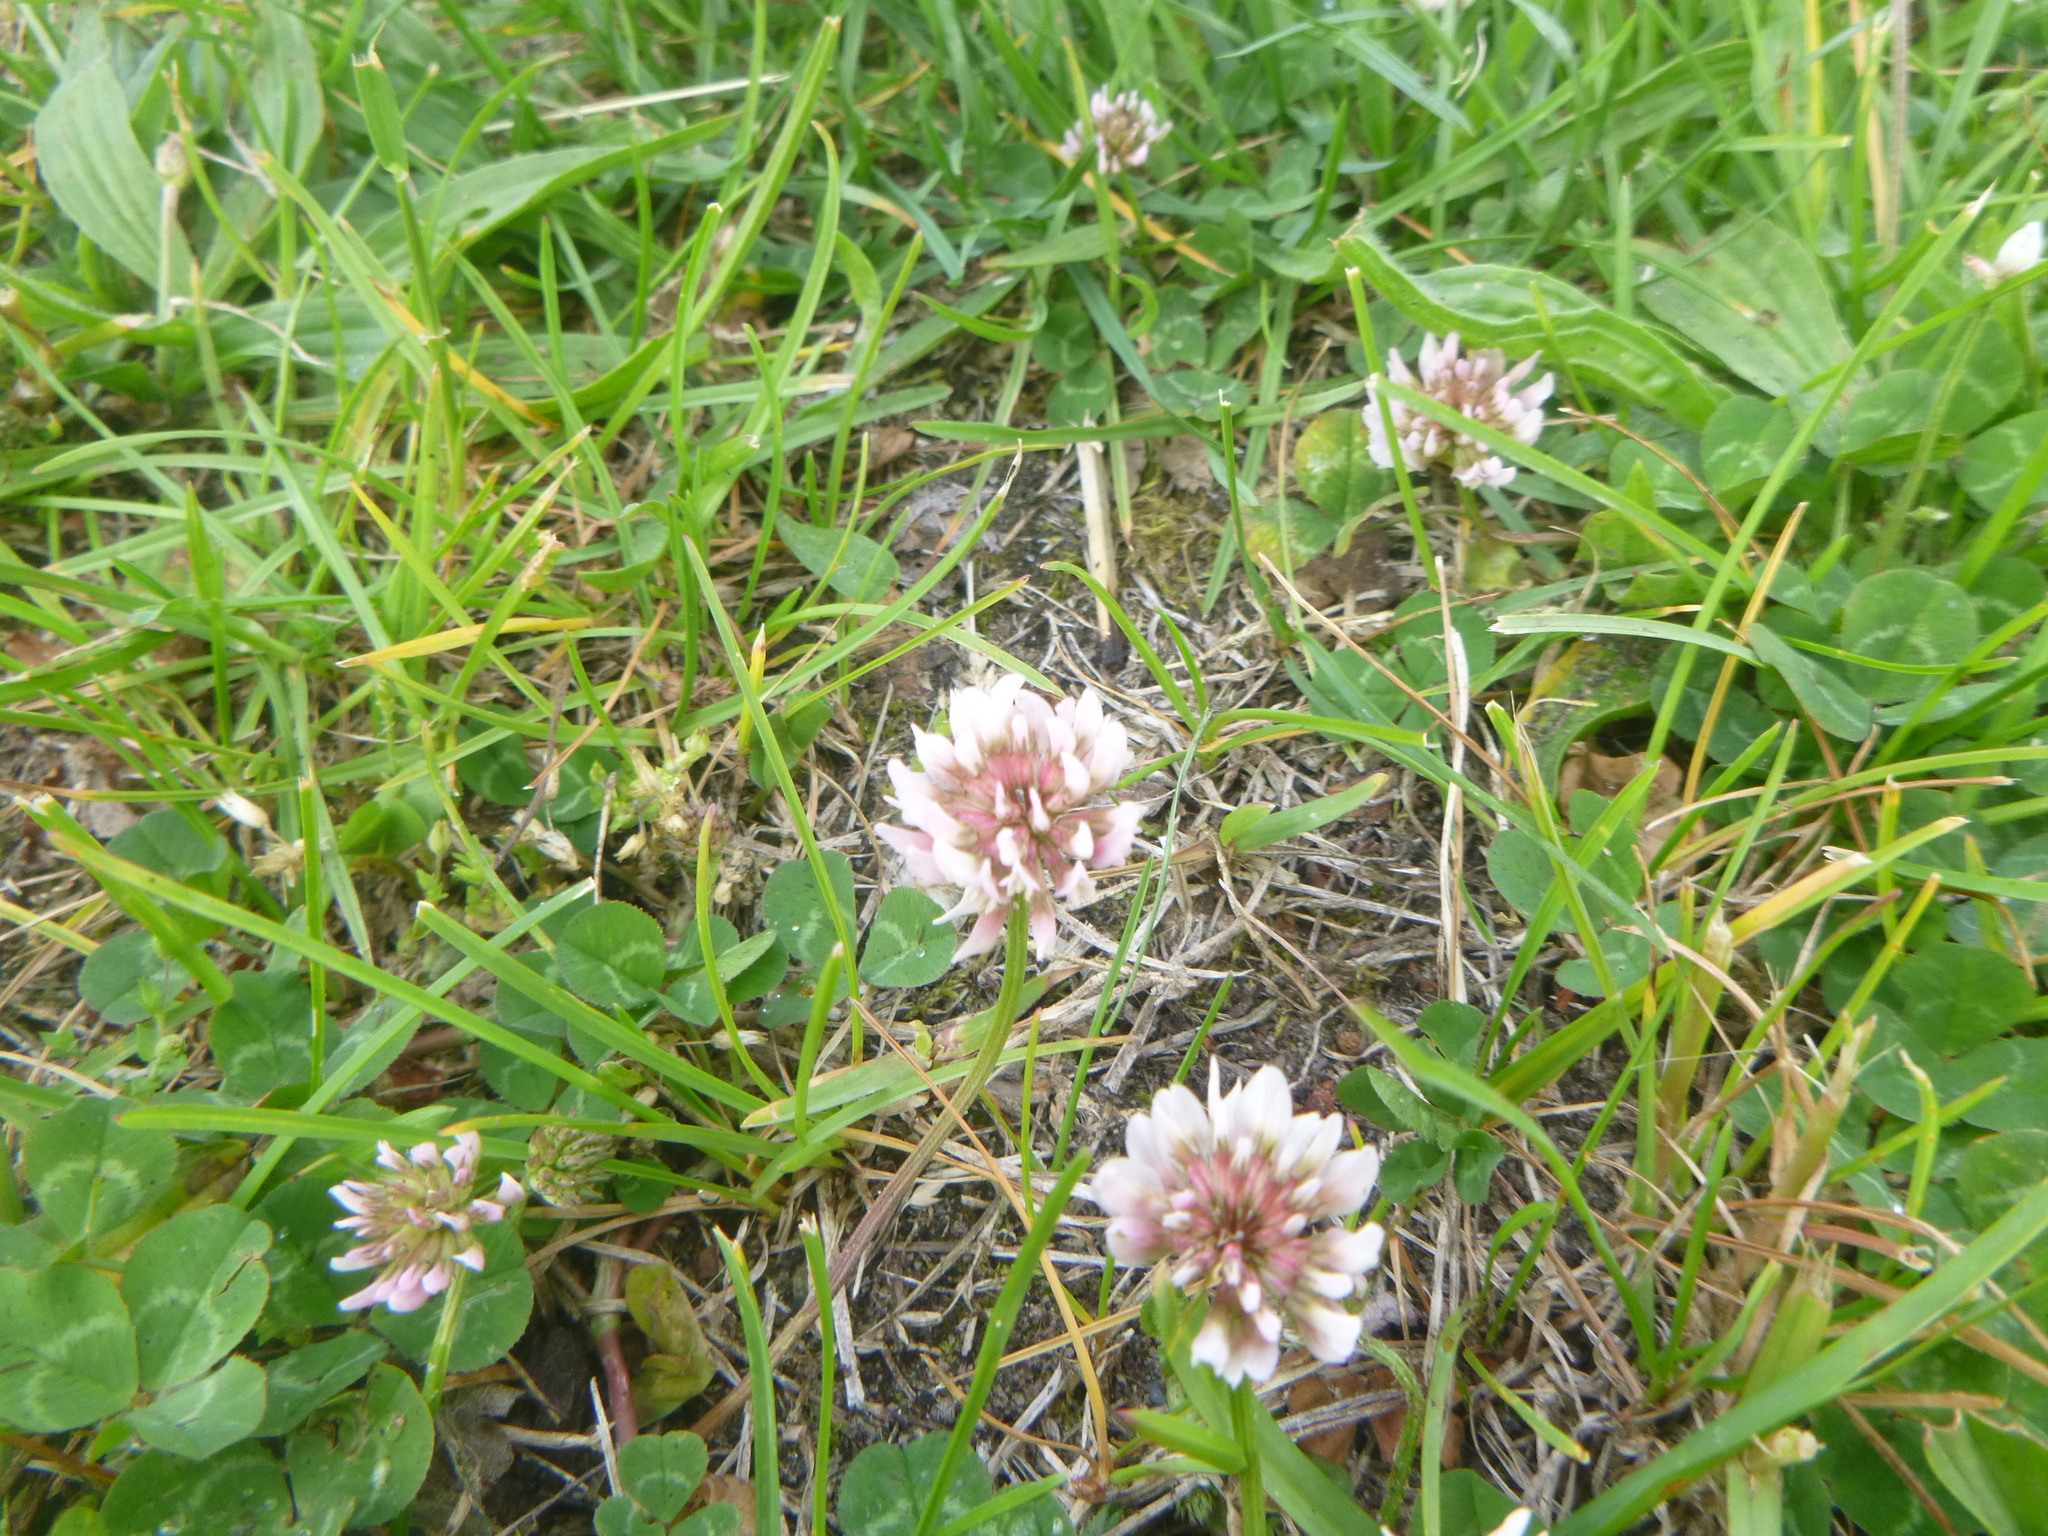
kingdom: Plantae
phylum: Tracheophyta
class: Magnoliopsida
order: Fabales
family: Fabaceae
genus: Trifolium
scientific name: Trifolium repens
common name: White clover
